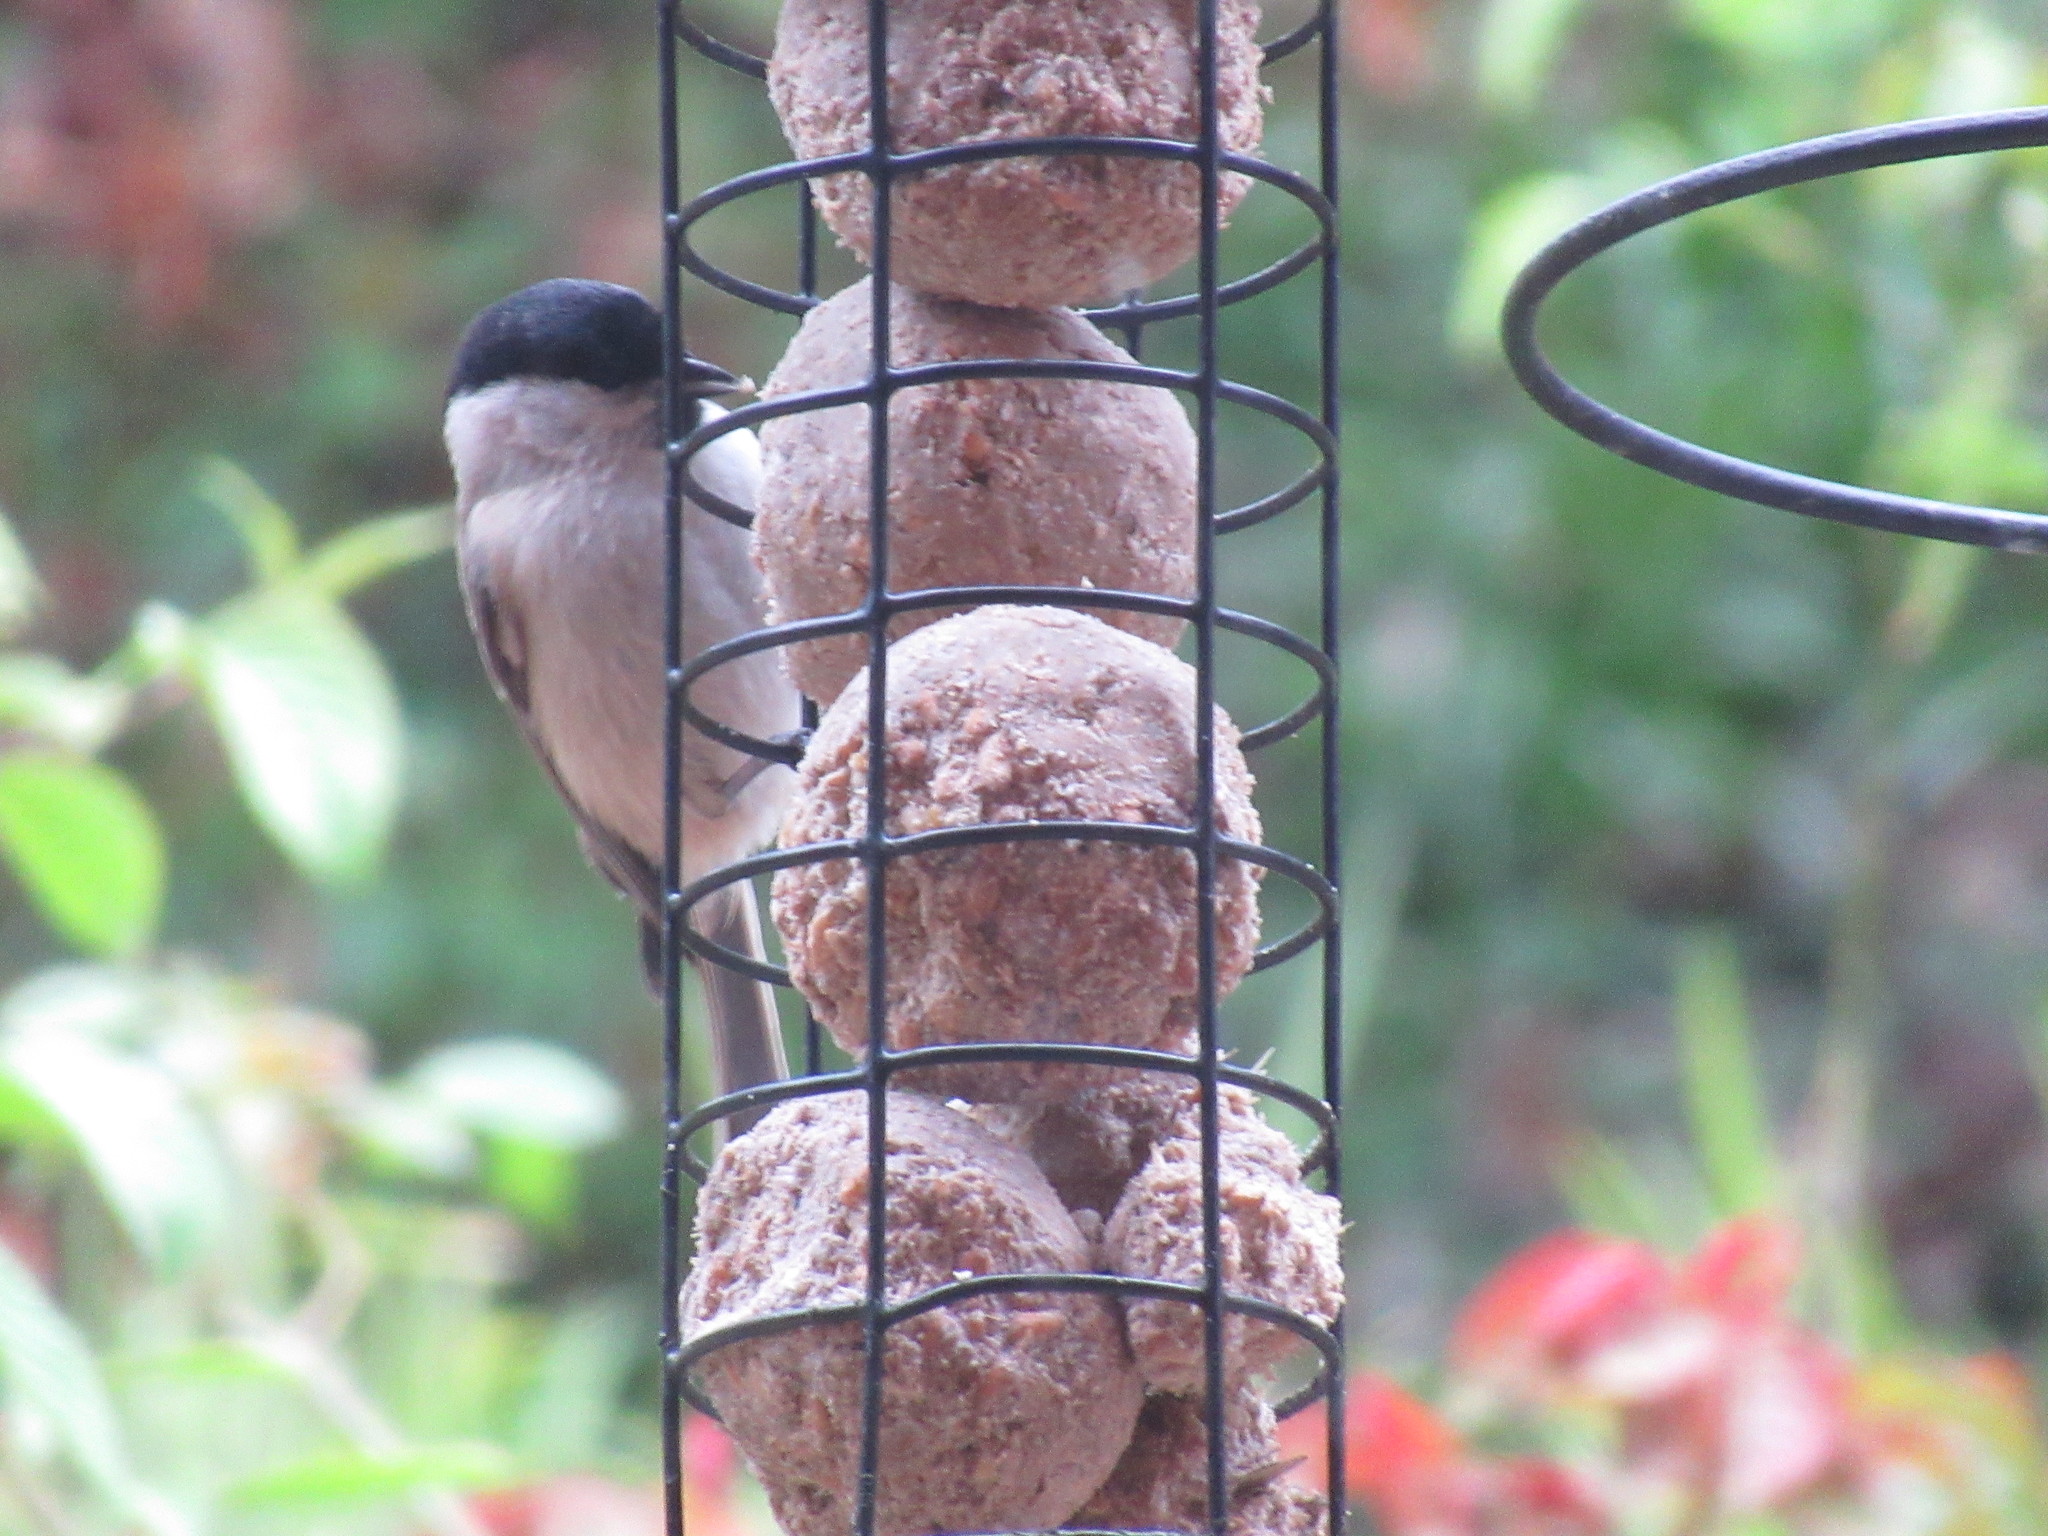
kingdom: Animalia
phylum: Chordata
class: Aves
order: Passeriformes
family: Paridae
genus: Poecile
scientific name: Poecile palustris
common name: Marsh tit
